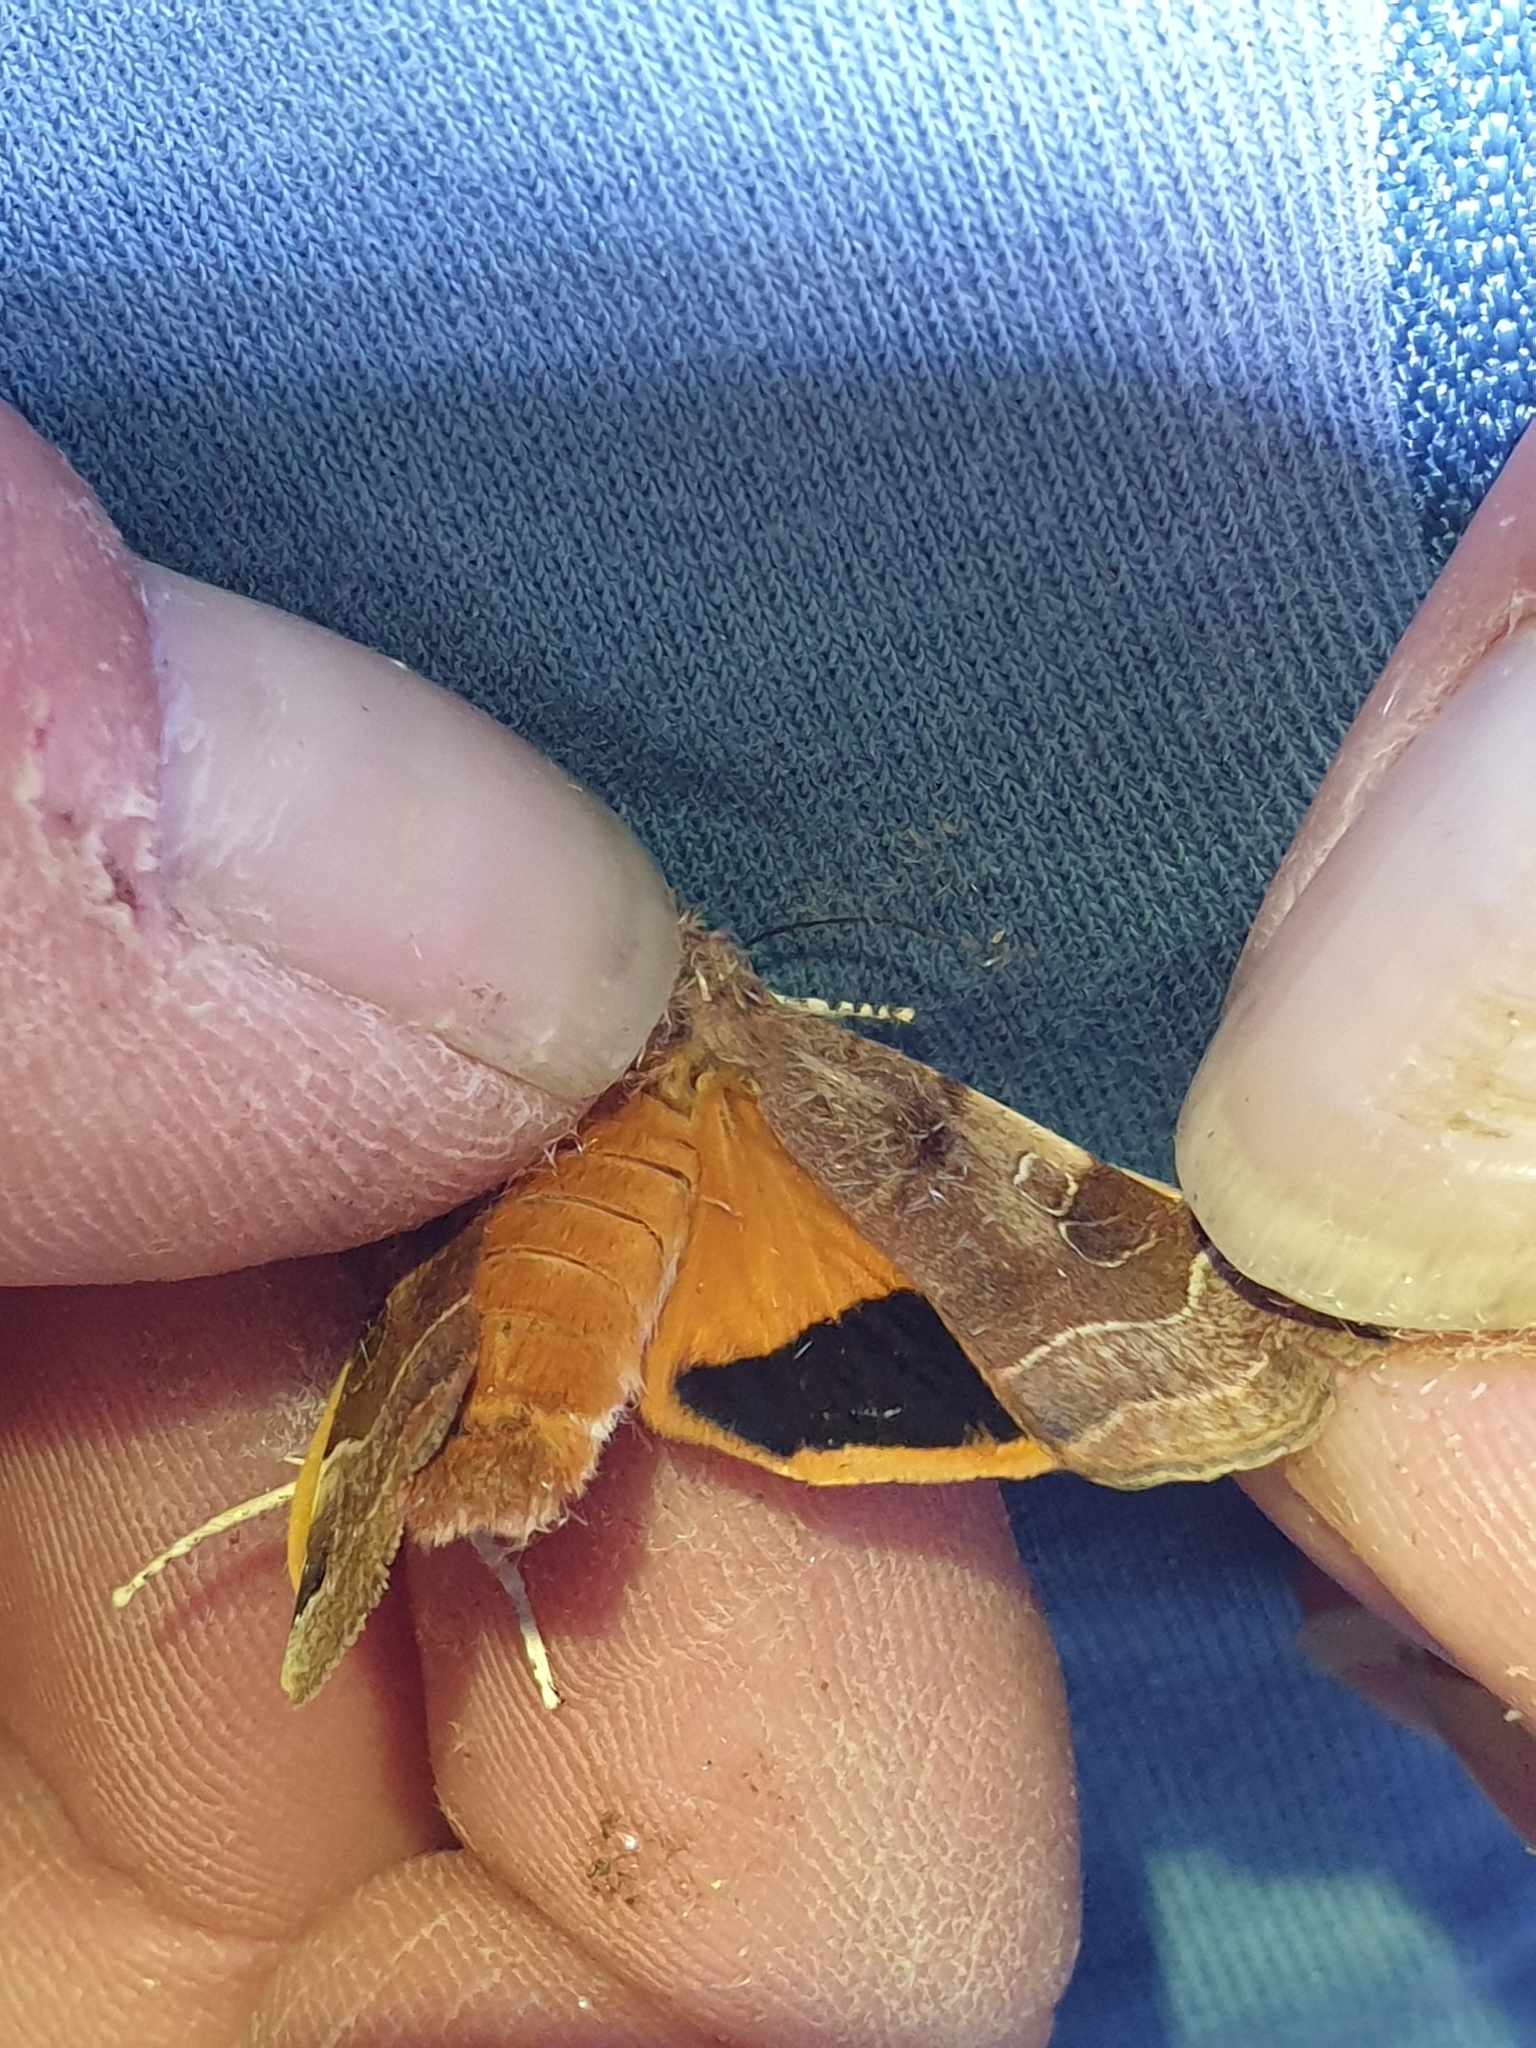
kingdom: Animalia
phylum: Arthropoda
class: Insecta
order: Lepidoptera
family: Noctuidae
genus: Noctua
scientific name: Noctua fimbriata
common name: Broad-bordered yellow underwing
